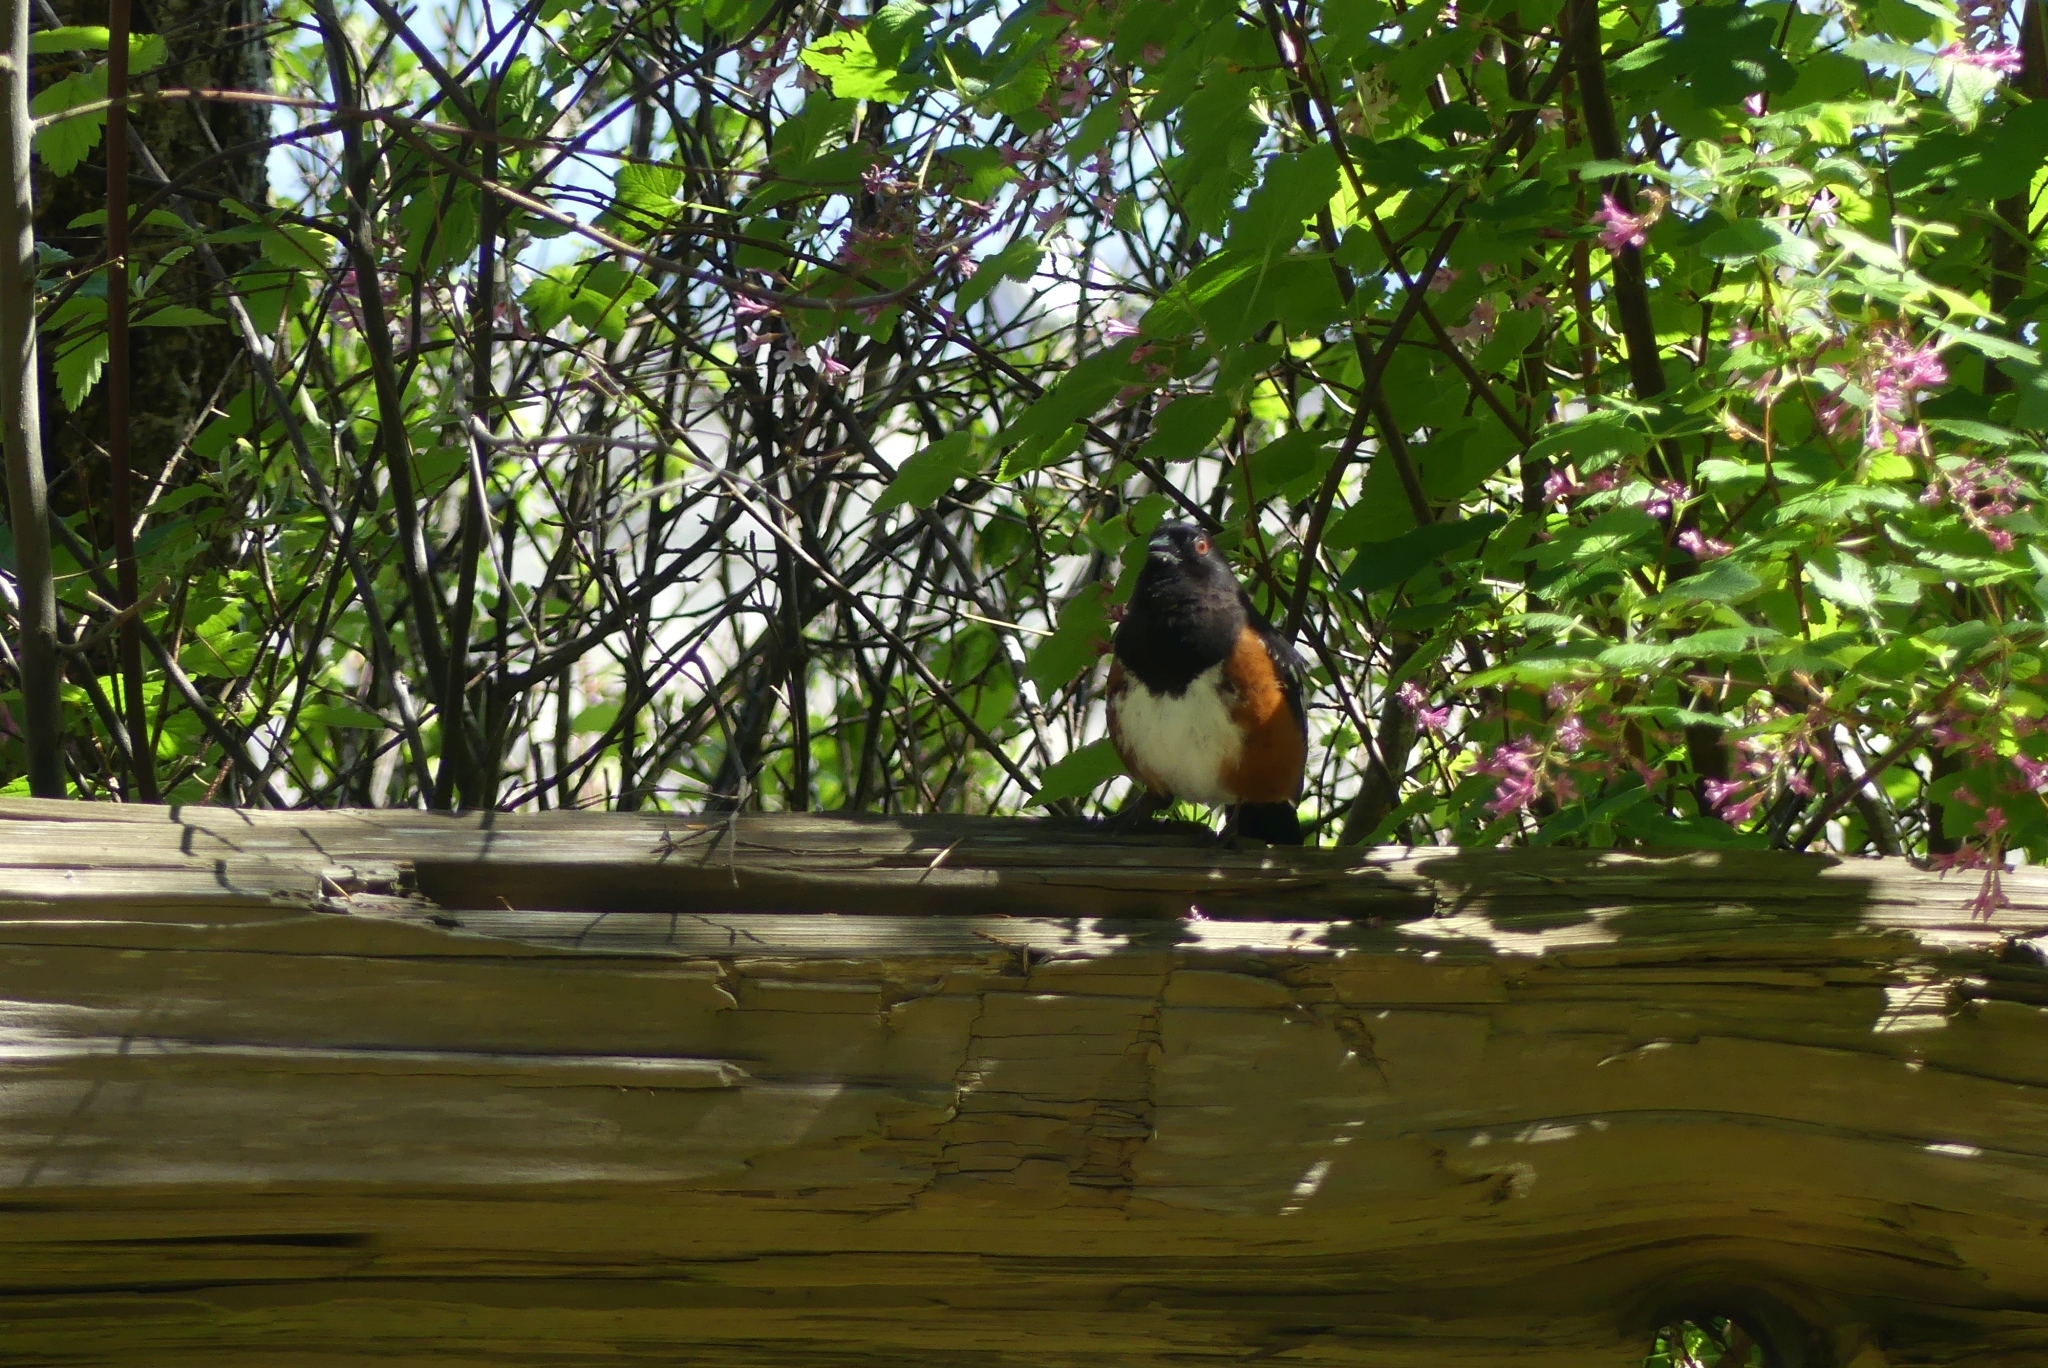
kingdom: Animalia
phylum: Chordata
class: Aves
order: Passeriformes
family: Passerellidae
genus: Pipilo
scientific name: Pipilo maculatus
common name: Spotted towhee
